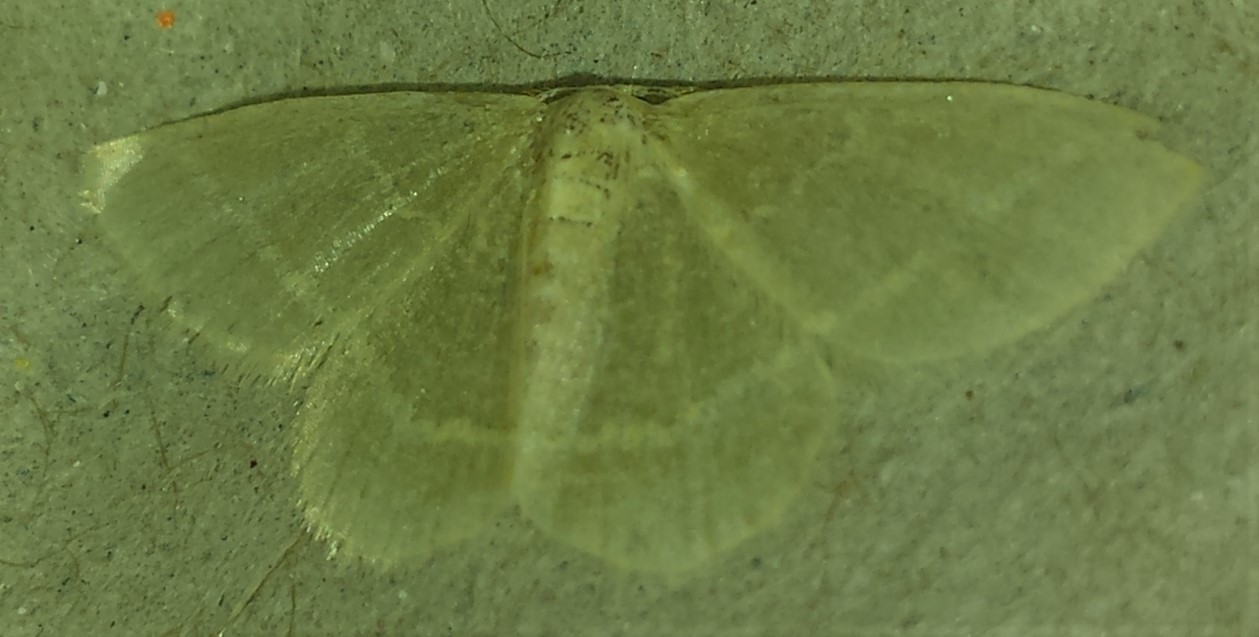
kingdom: Animalia
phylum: Arthropoda
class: Insecta
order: Lepidoptera
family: Geometridae
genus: Chlorochlamys
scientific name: Chlorochlamys chloroleucaria
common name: Blackberry looper
